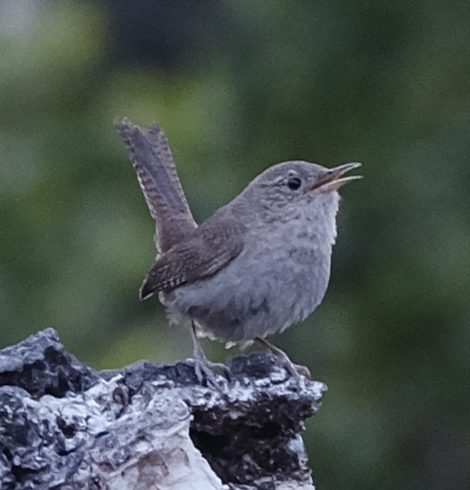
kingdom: Animalia
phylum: Chordata
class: Aves
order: Passeriformes
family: Troglodytidae
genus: Thryomanes
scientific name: Thryomanes bewickii
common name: Bewick's wren
